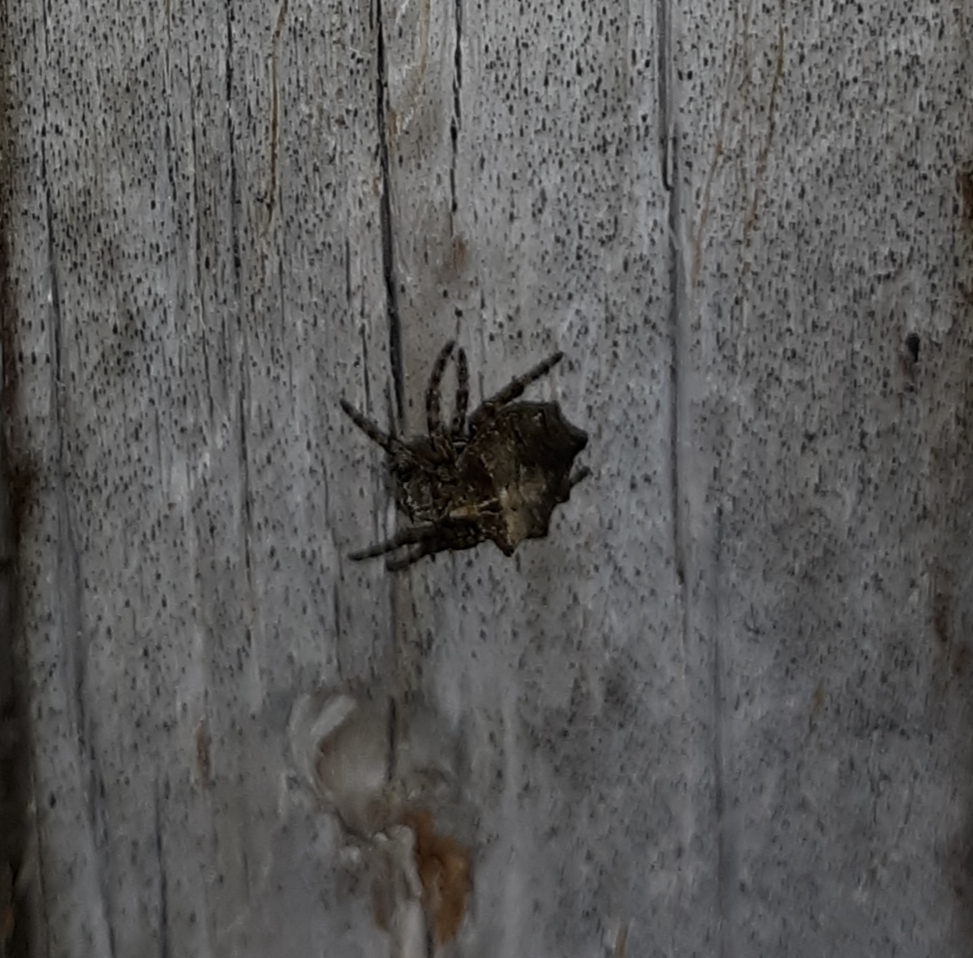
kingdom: Animalia
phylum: Arthropoda
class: Arachnida
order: Araneae
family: Araneidae
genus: Acanthepeira
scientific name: Acanthepeira stellata
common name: Starbellied orbweaver
